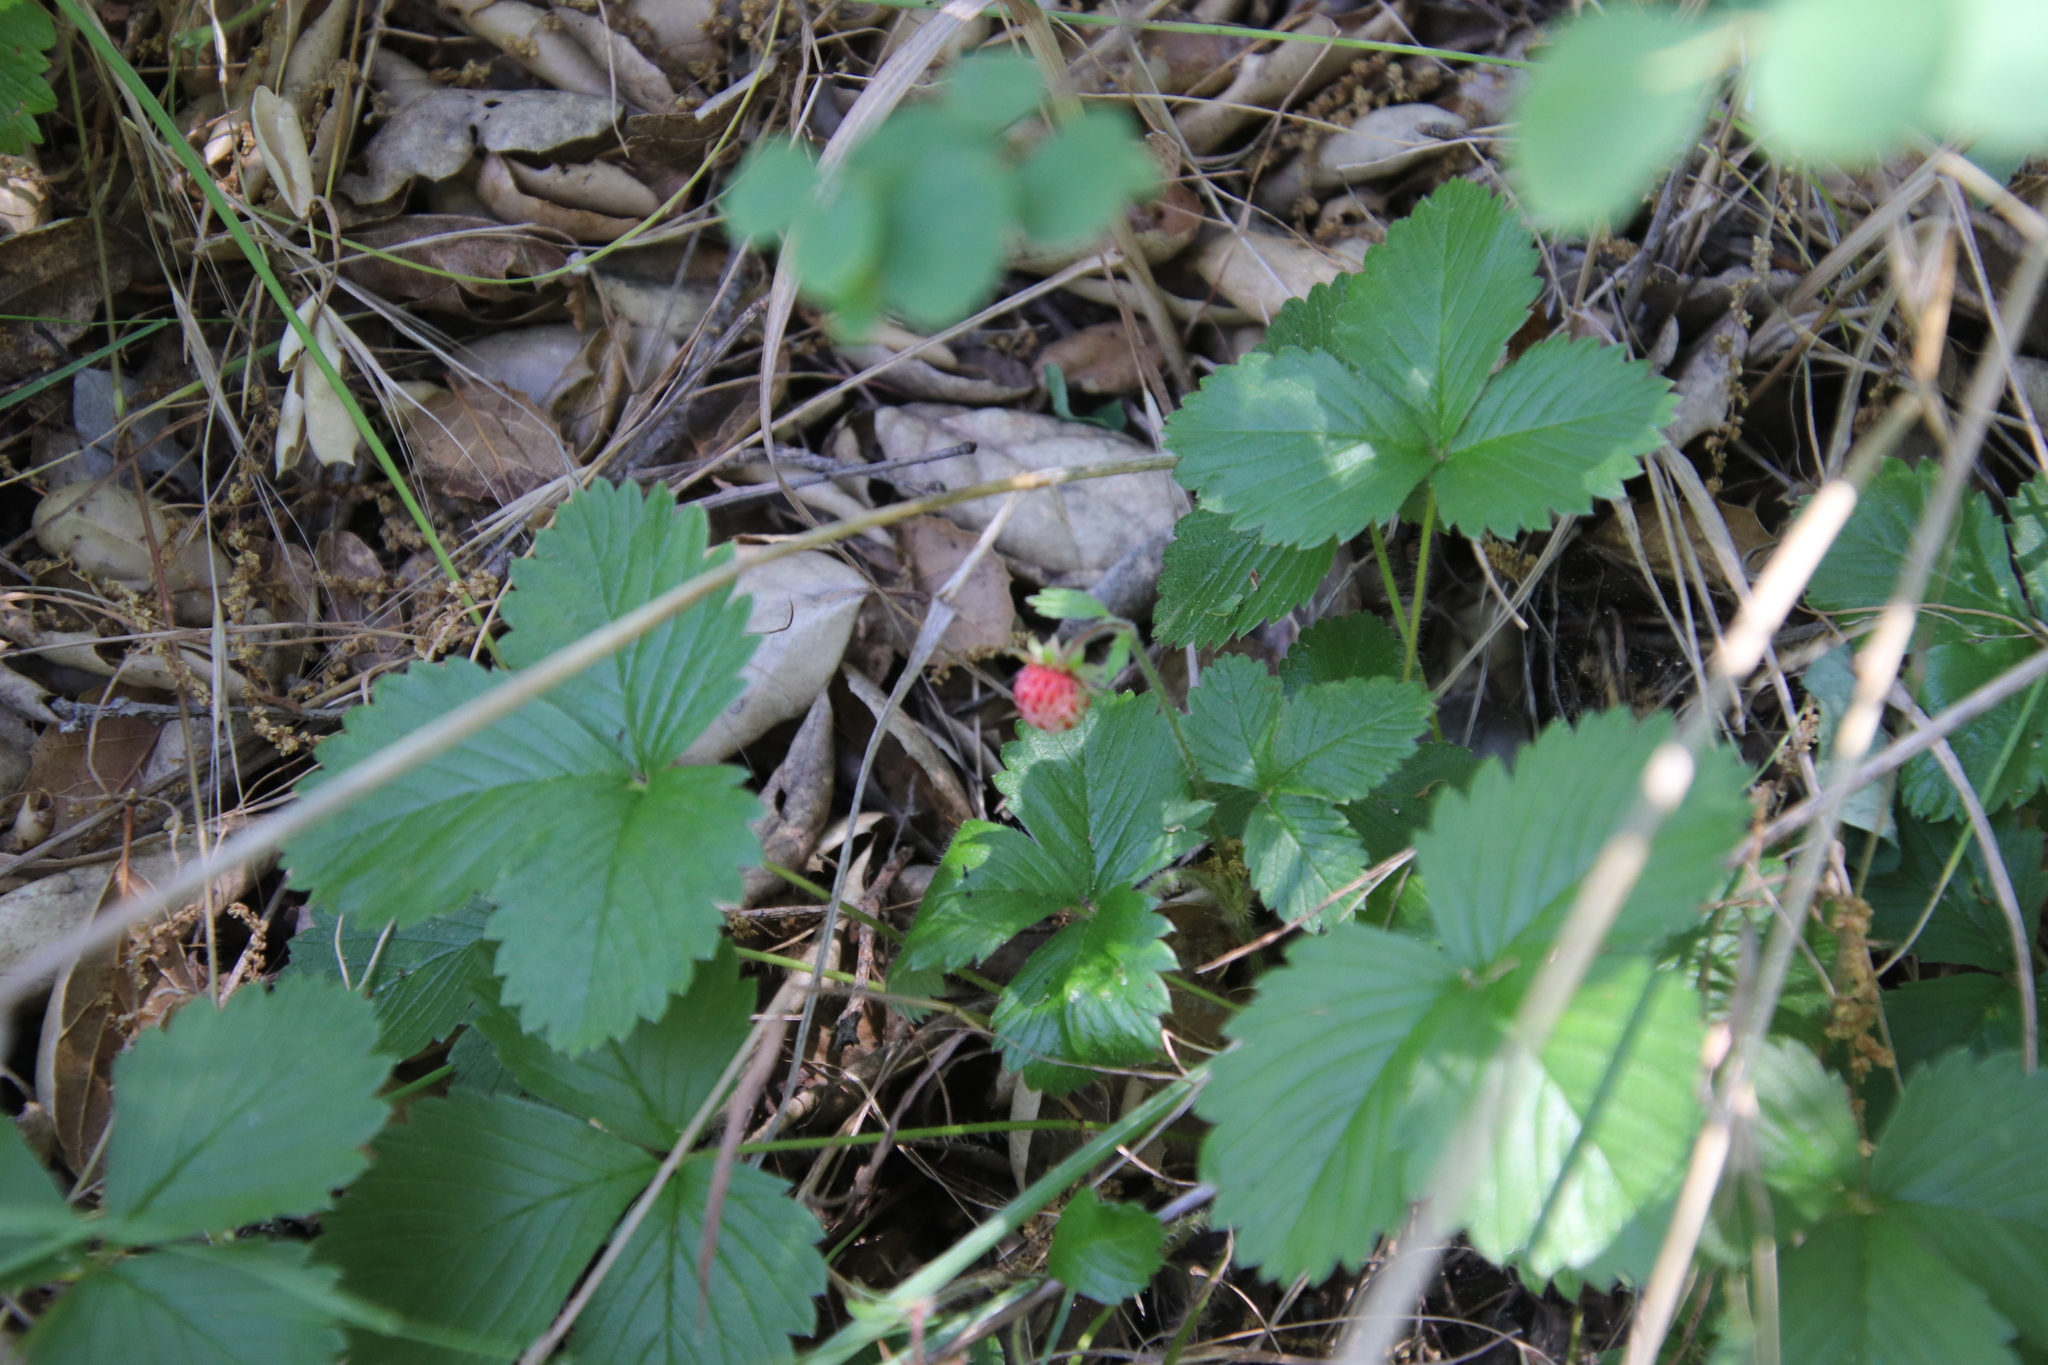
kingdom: Plantae
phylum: Tracheophyta
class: Magnoliopsida
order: Rosales
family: Rosaceae
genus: Fragaria
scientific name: Fragaria vesca
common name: Wild strawberry
